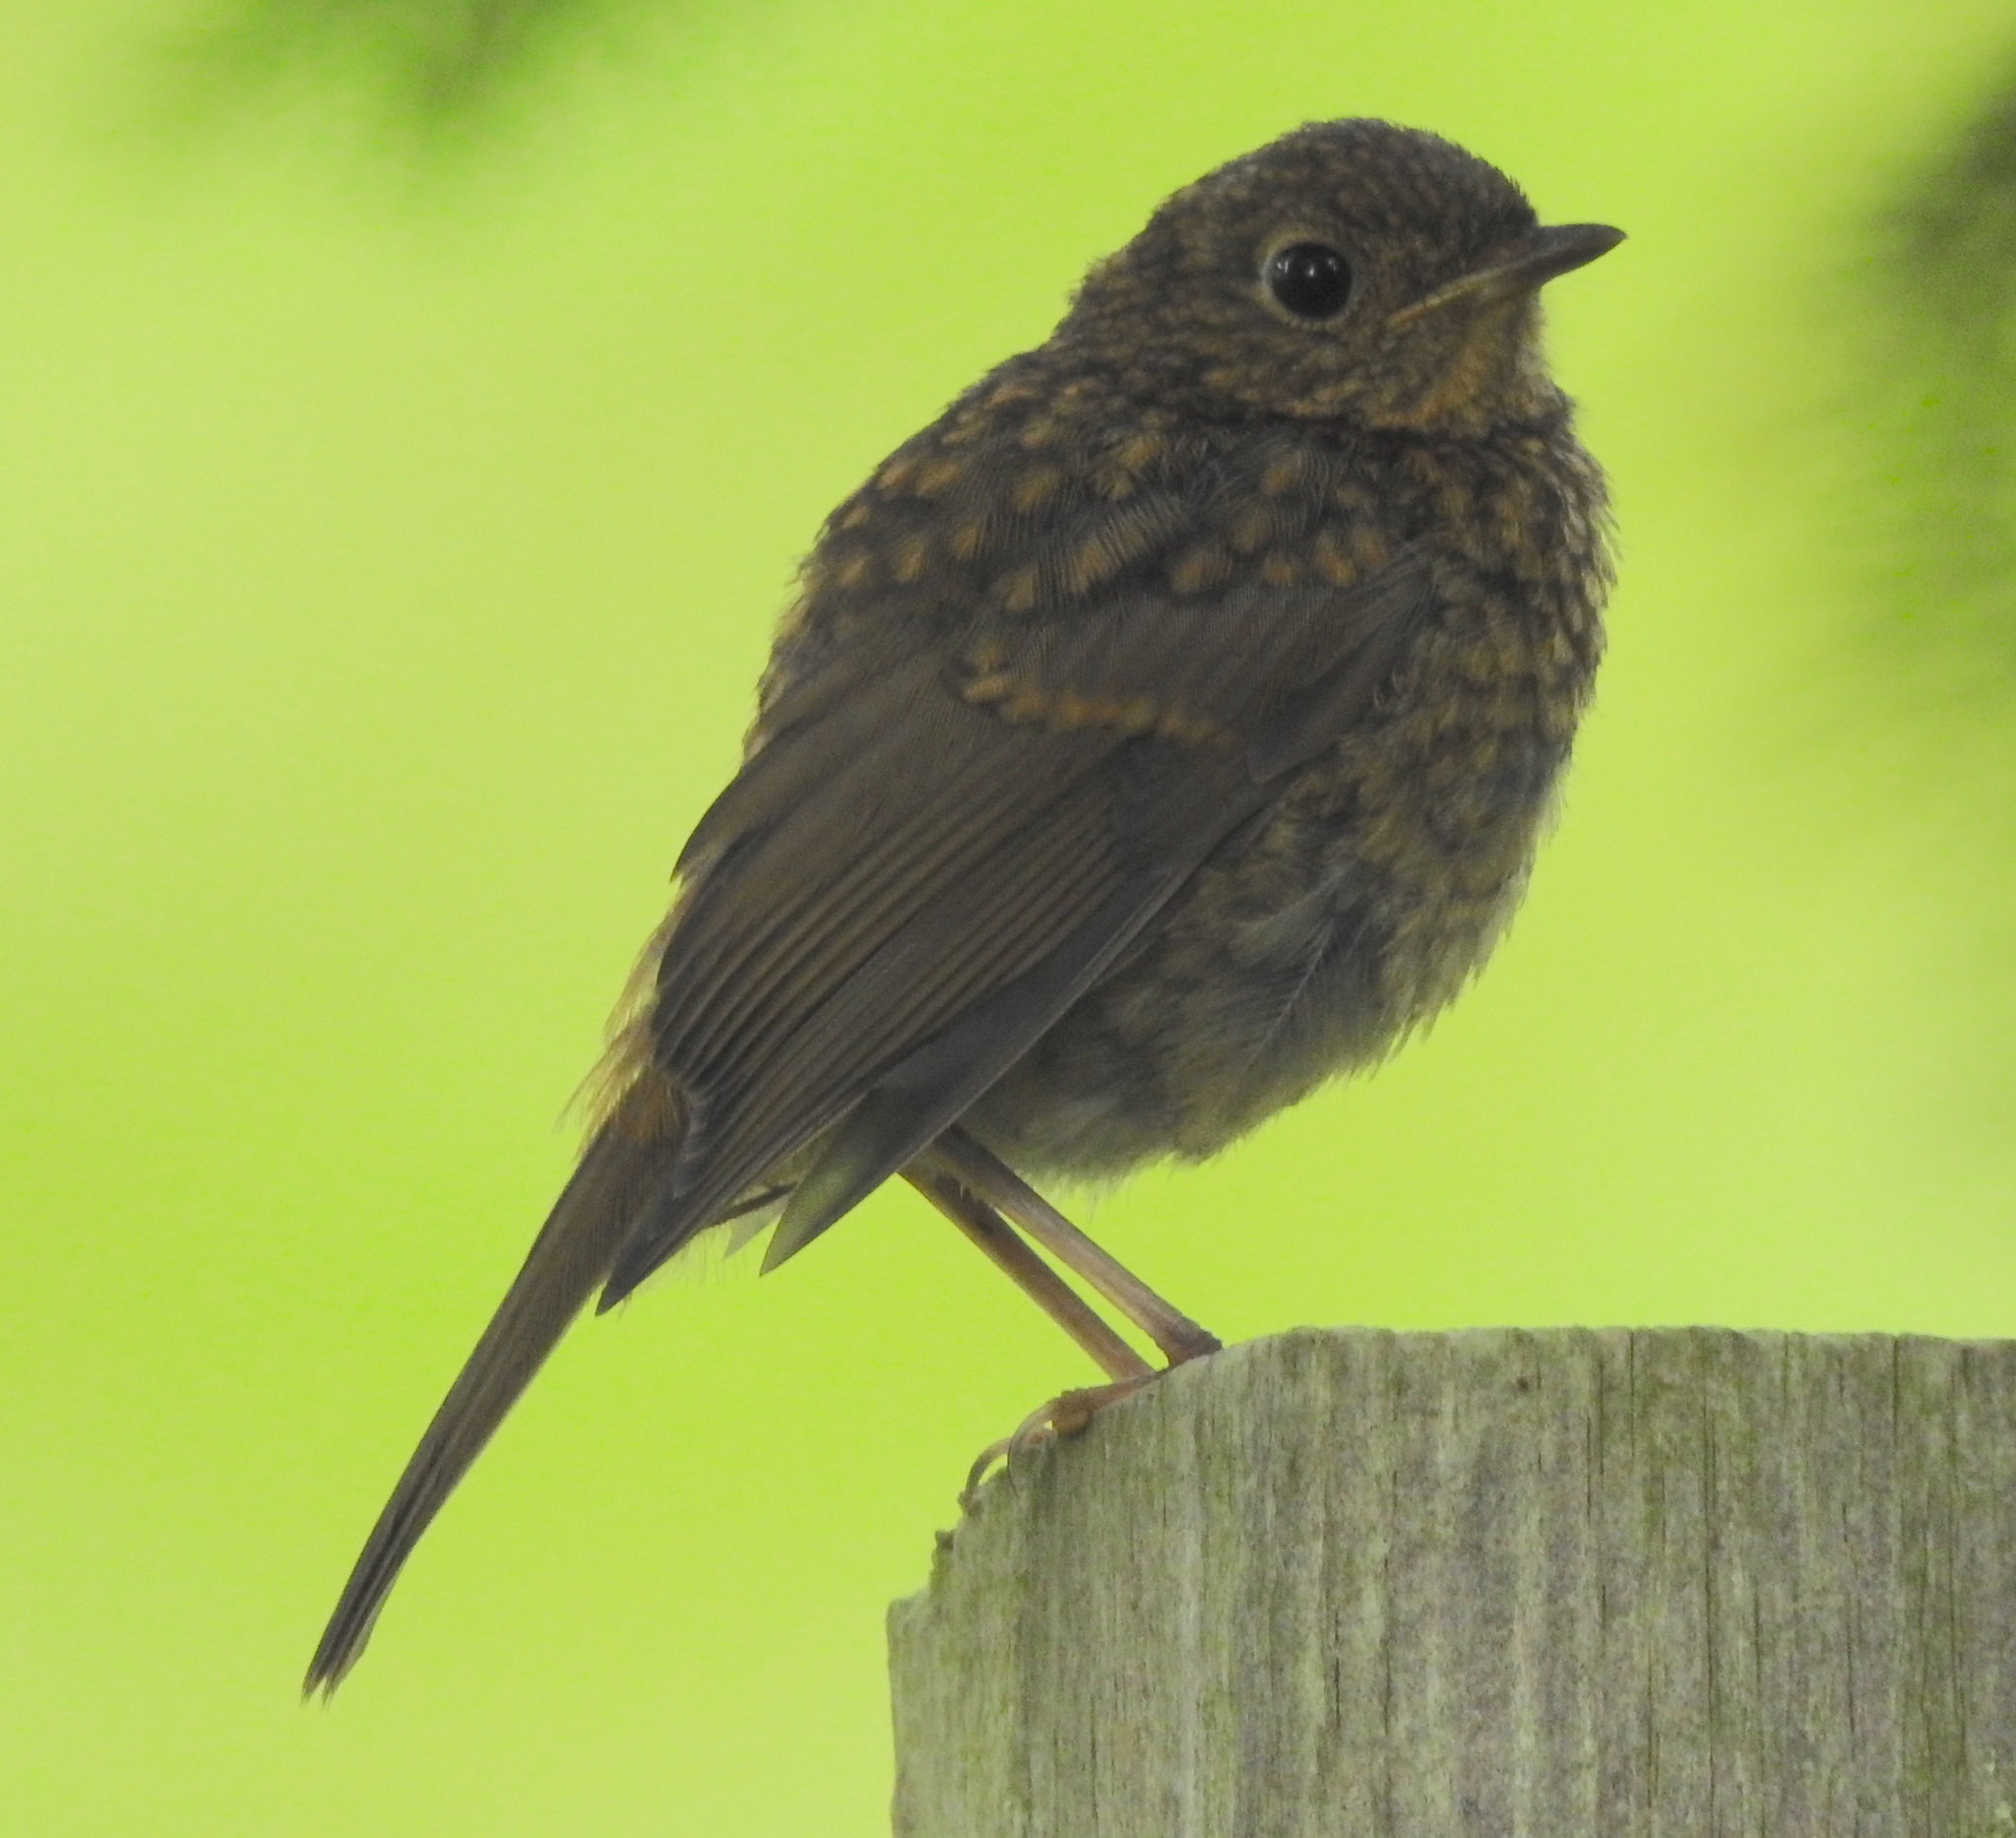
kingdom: Animalia
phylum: Chordata
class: Aves
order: Passeriformes
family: Muscicapidae
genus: Erithacus
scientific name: Erithacus rubecula
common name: European robin
